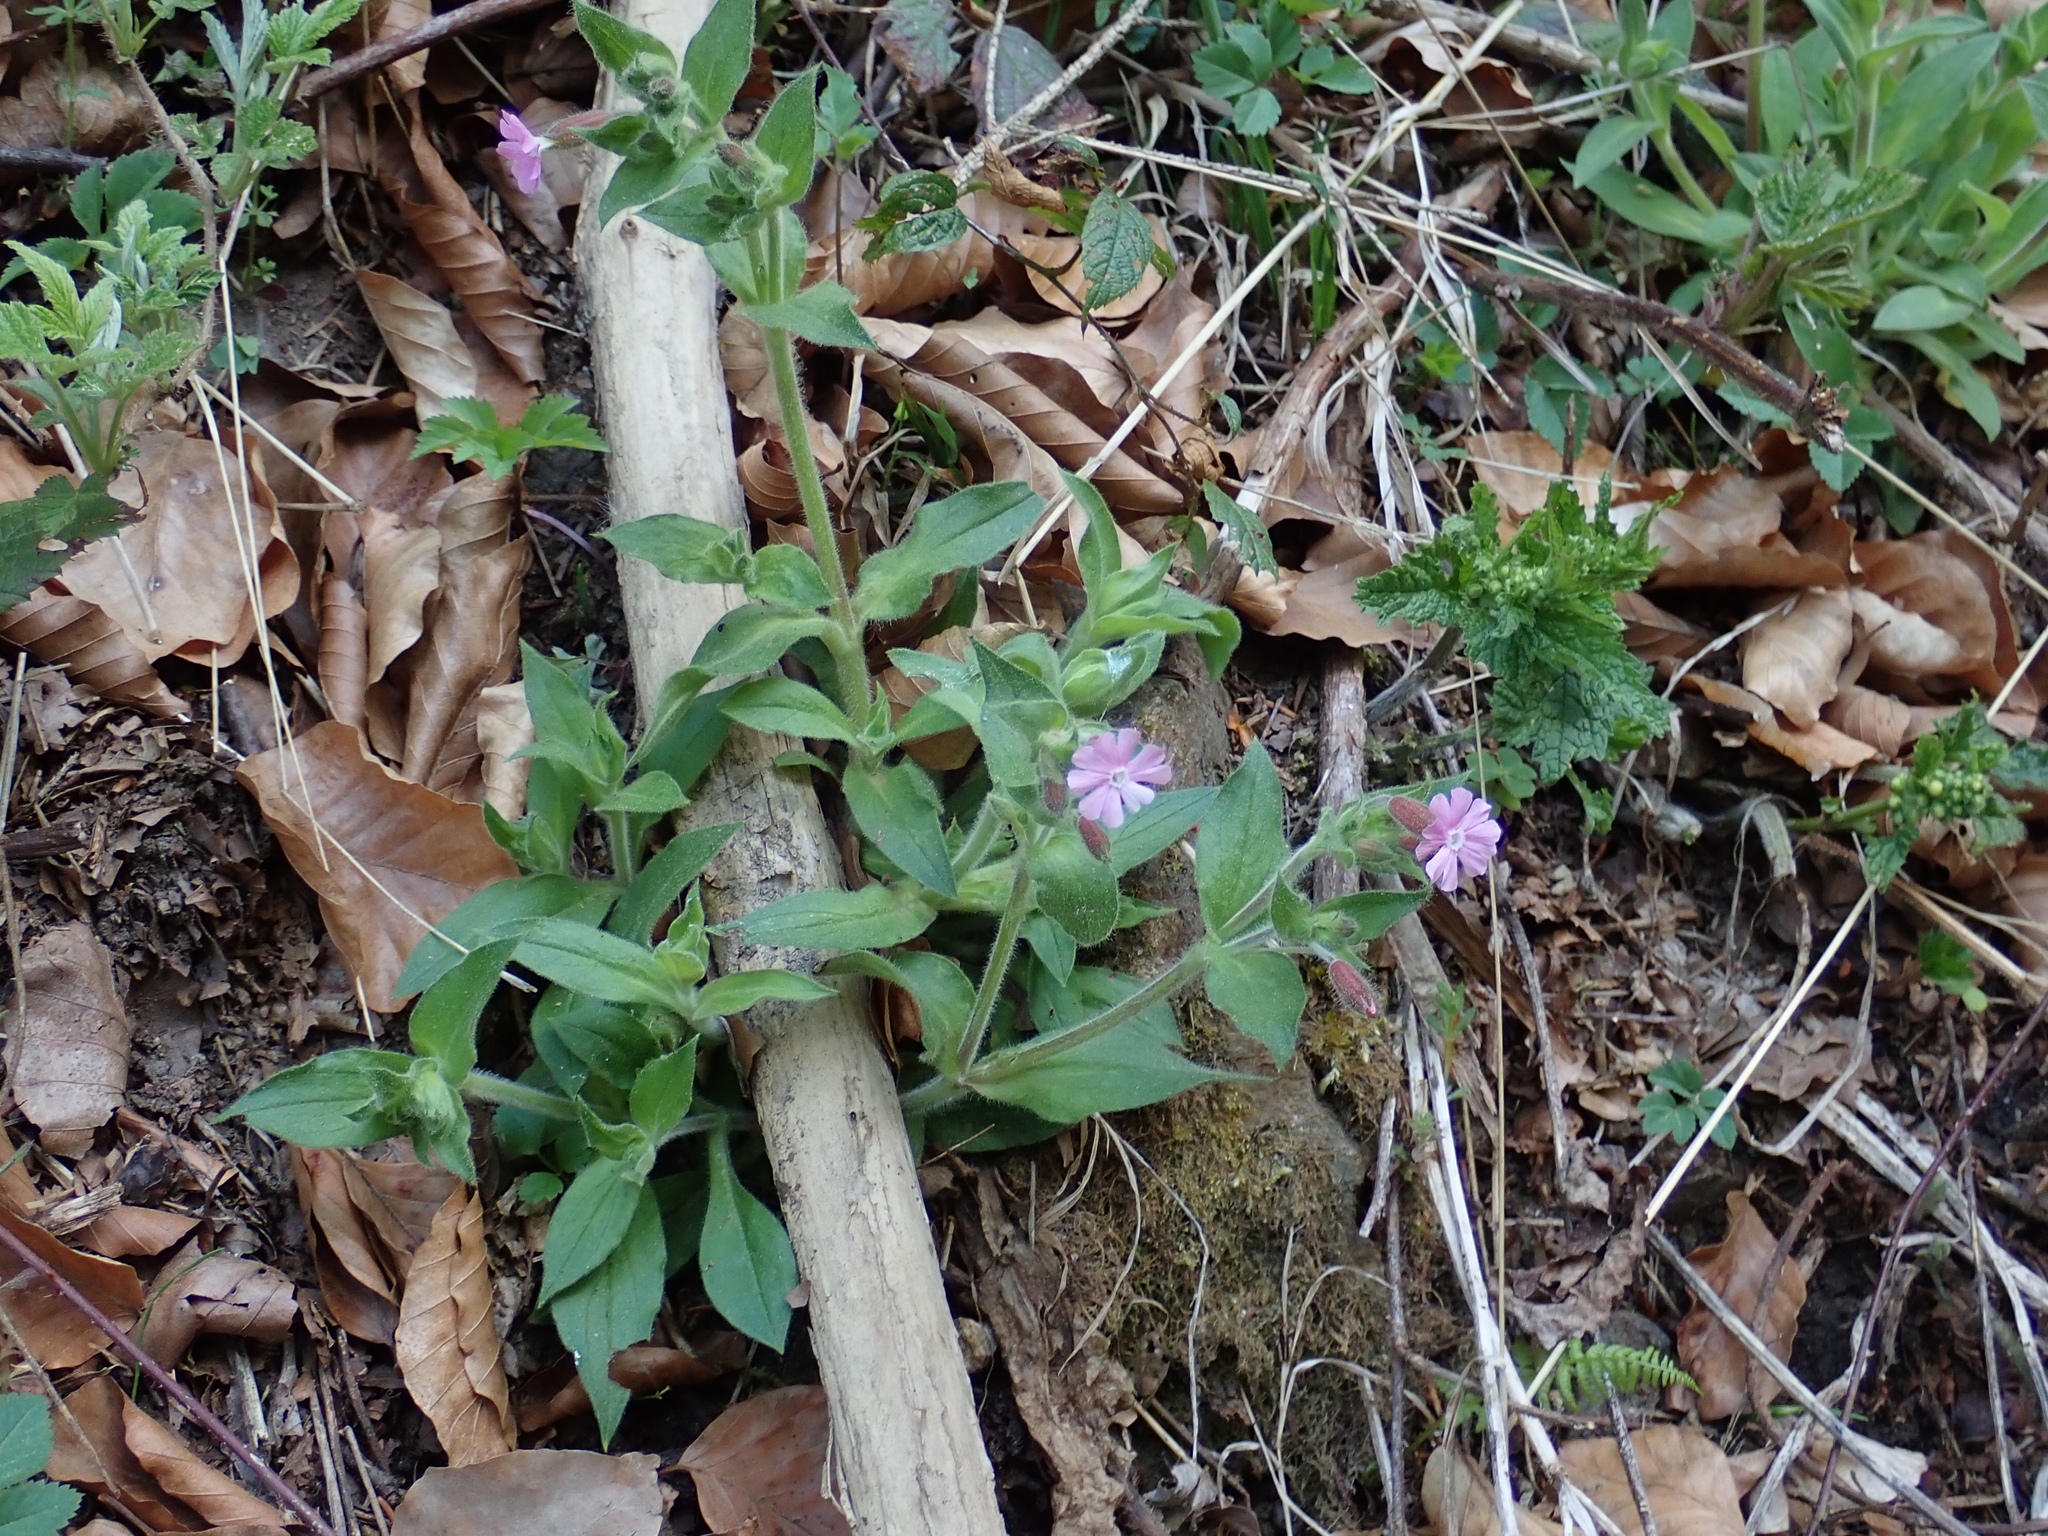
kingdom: Plantae
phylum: Tracheophyta
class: Magnoliopsida
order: Caryophyllales
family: Caryophyllaceae
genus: Silene
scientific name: Silene dioica
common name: Red campion
